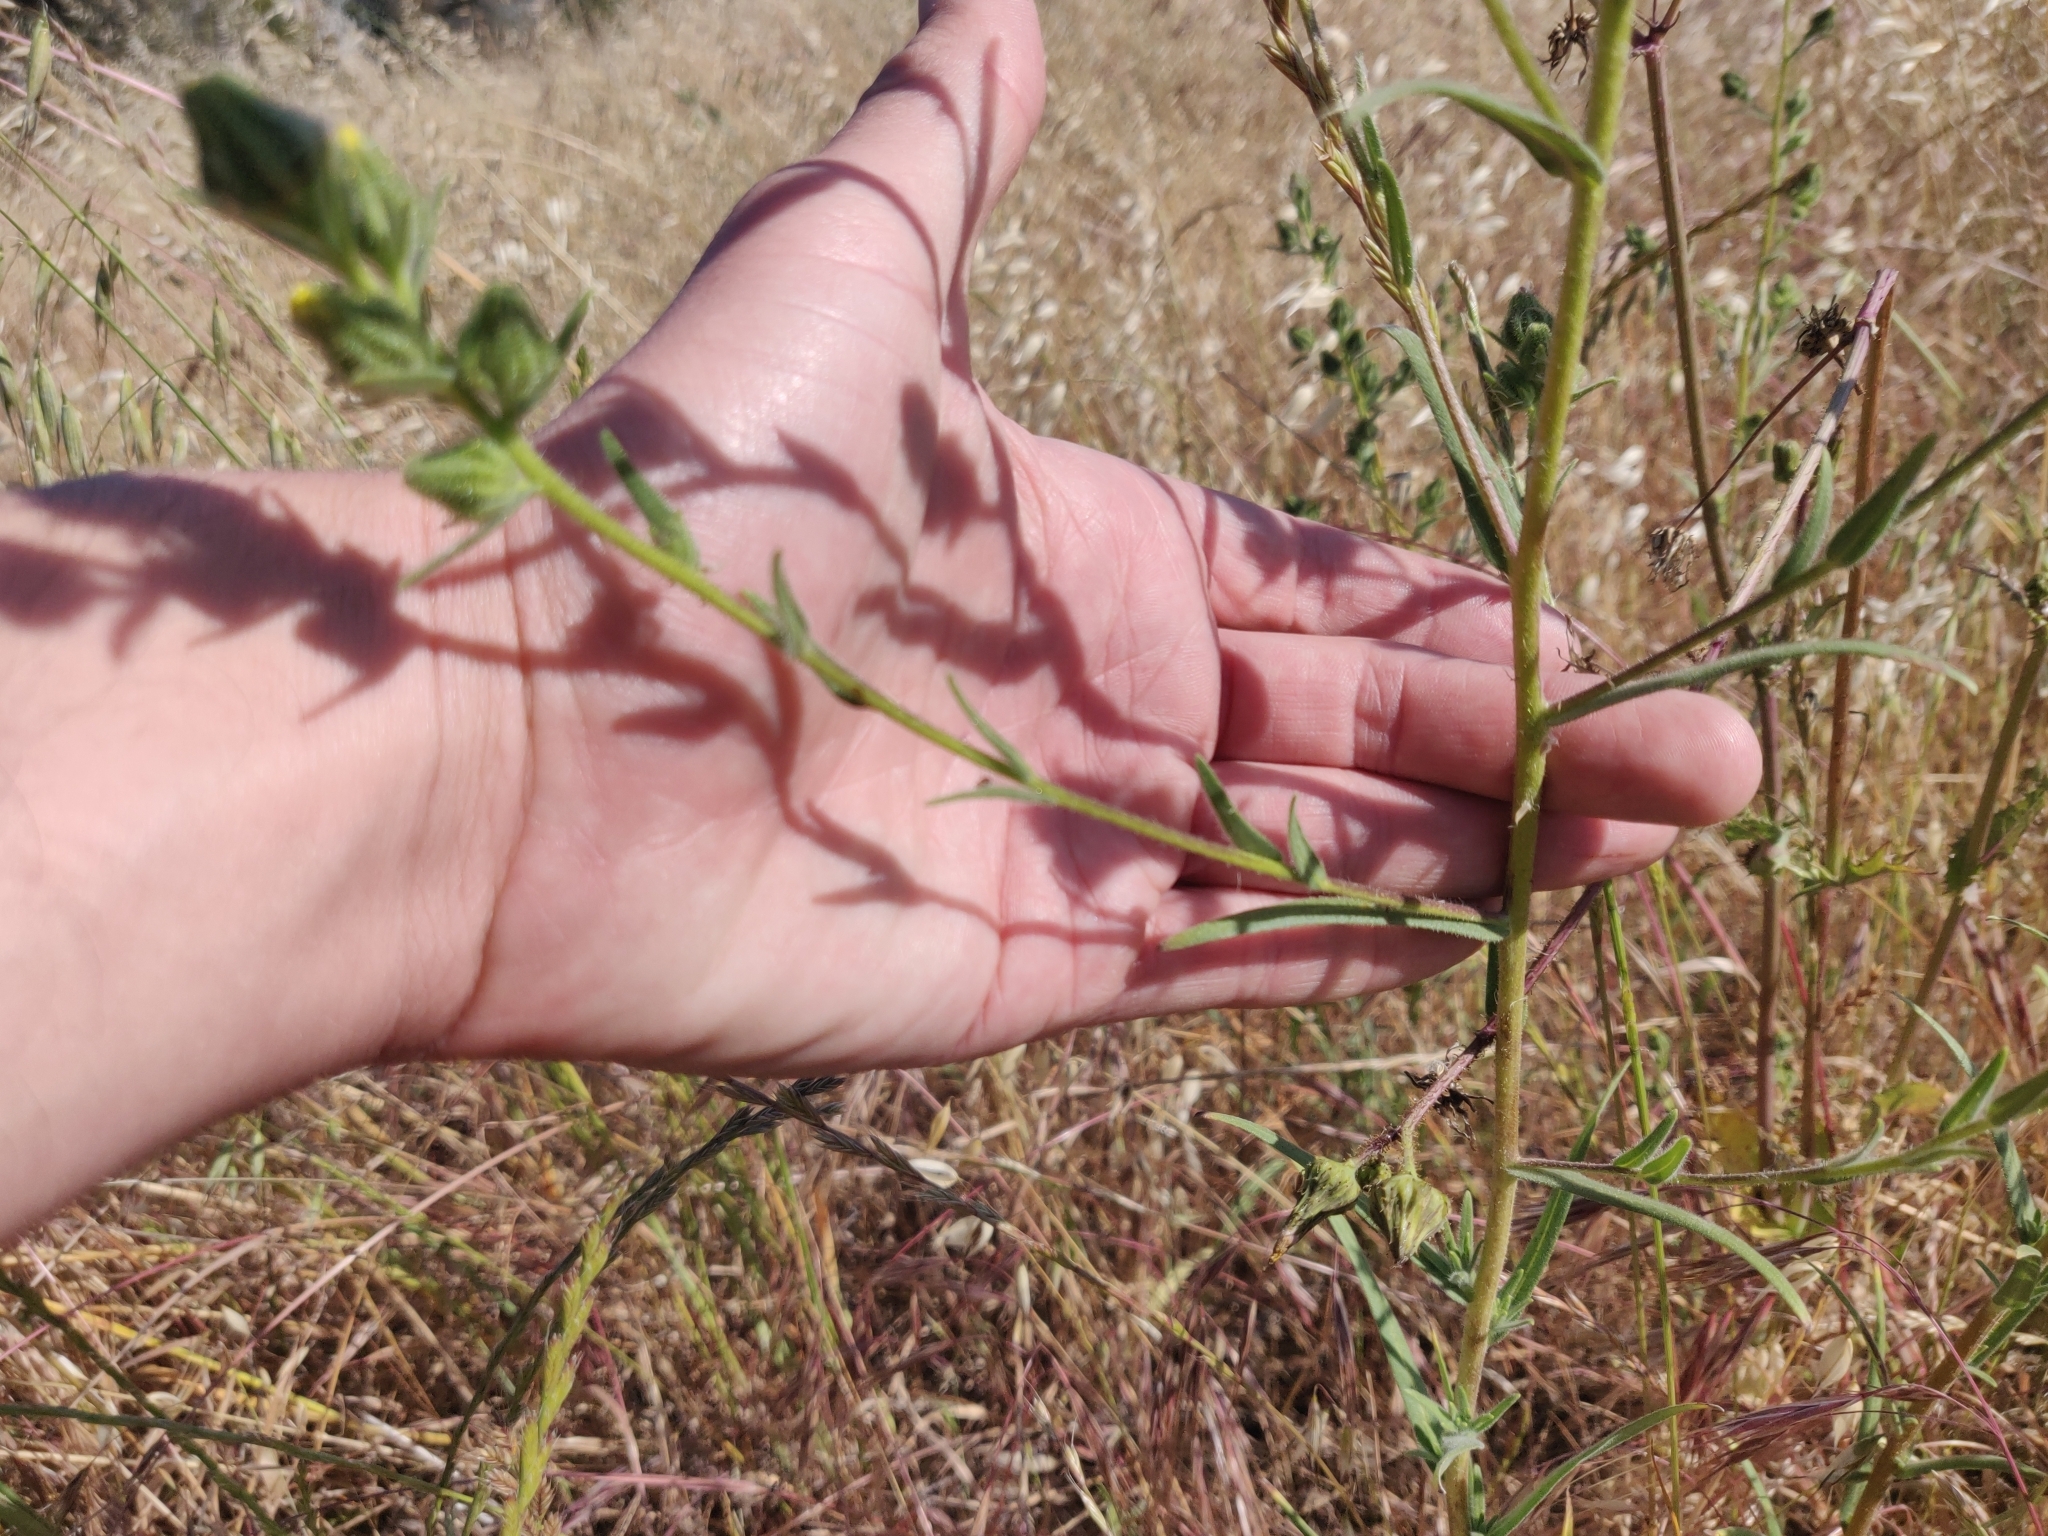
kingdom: Plantae
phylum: Tracheophyta
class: Magnoliopsida
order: Asterales
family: Asteraceae
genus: Madia
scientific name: Madia gracilis
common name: Grassy tarweed
